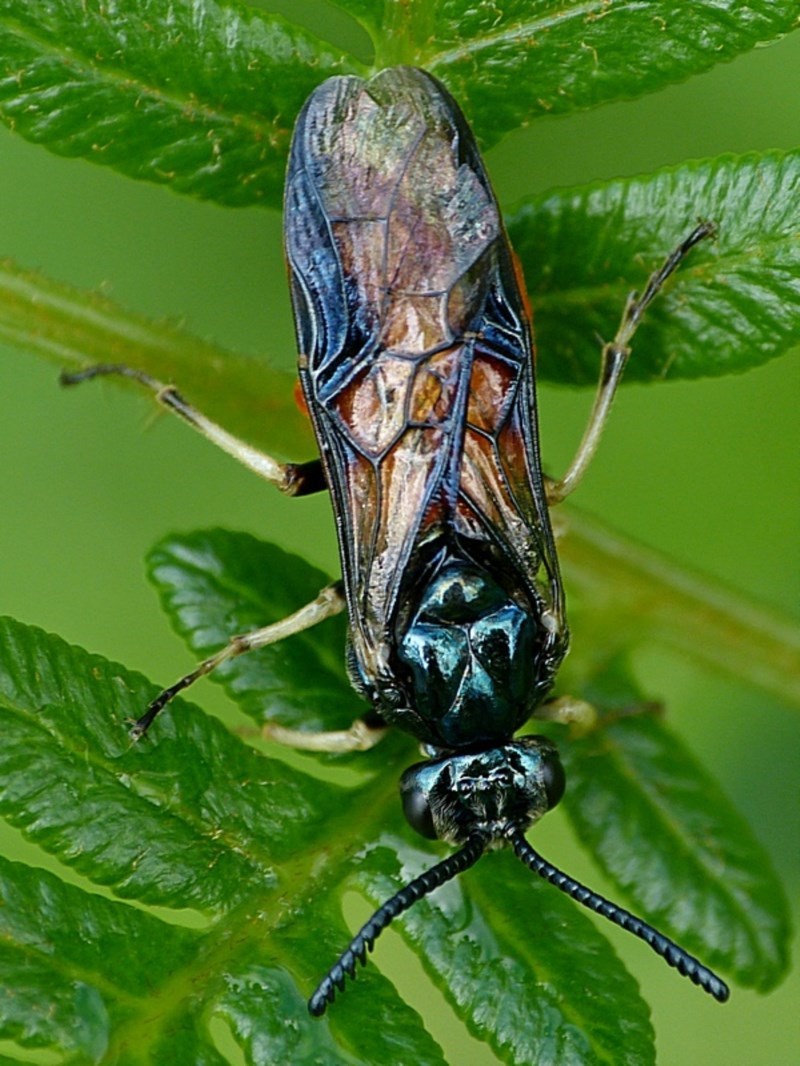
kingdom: Animalia
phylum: Arthropoda
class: Insecta
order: Hymenoptera
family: Pergidae
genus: Lophyrotoma
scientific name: Lophyrotoma analis
